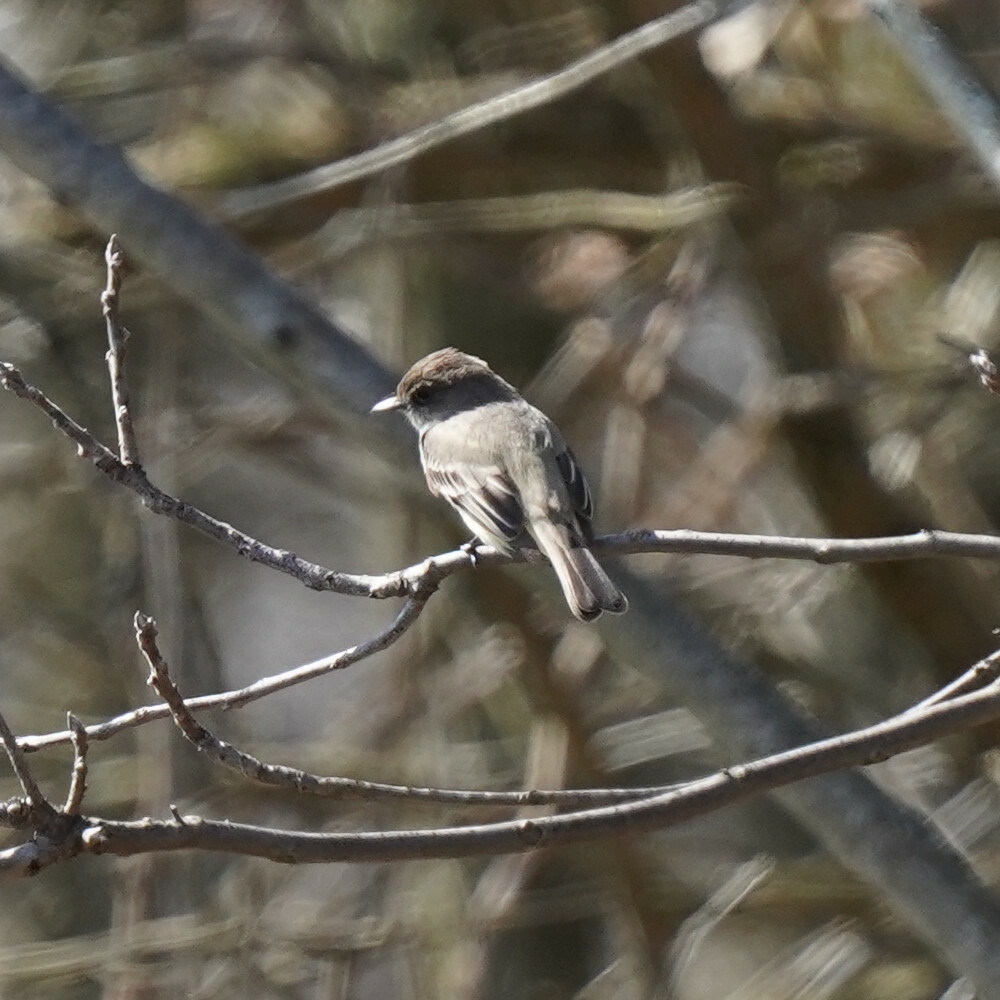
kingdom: Animalia
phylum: Chordata
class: Aves
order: Passeriformes
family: Tyrannidae
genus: Sayornis
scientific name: Sayornis phoebe
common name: Eastern phoebe
